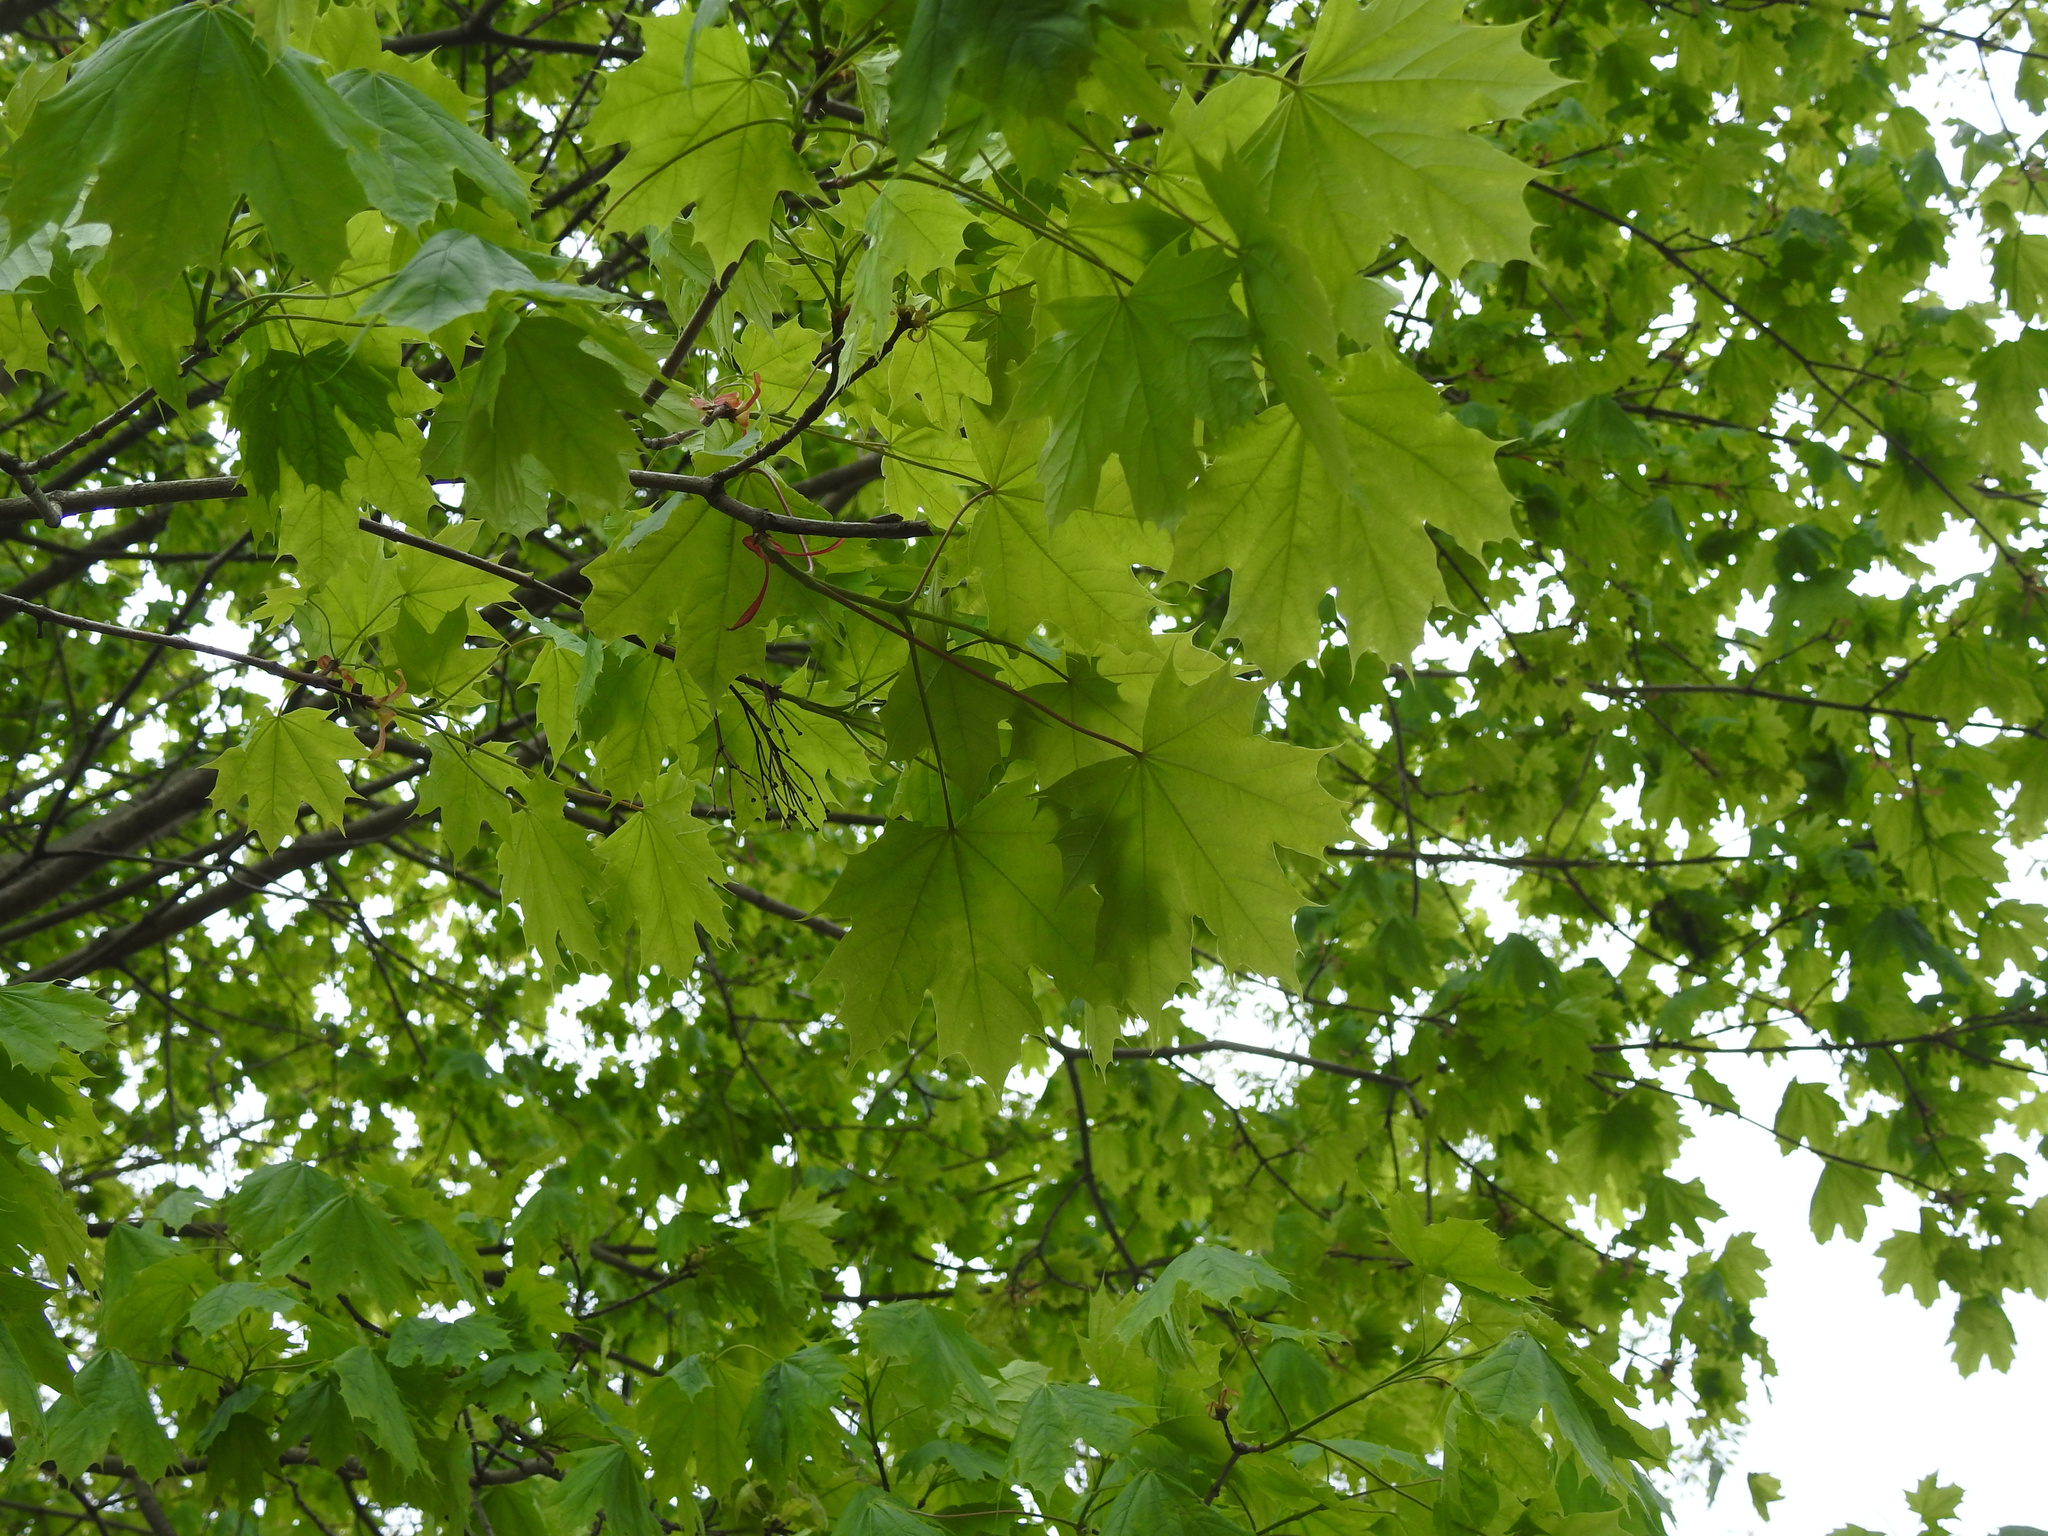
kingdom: Plantae
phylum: Tracheophyta
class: Magnoliopsida
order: Sapindales
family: Sapindaceae
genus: Acer
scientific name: Acer platanoides
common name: Norway maple
